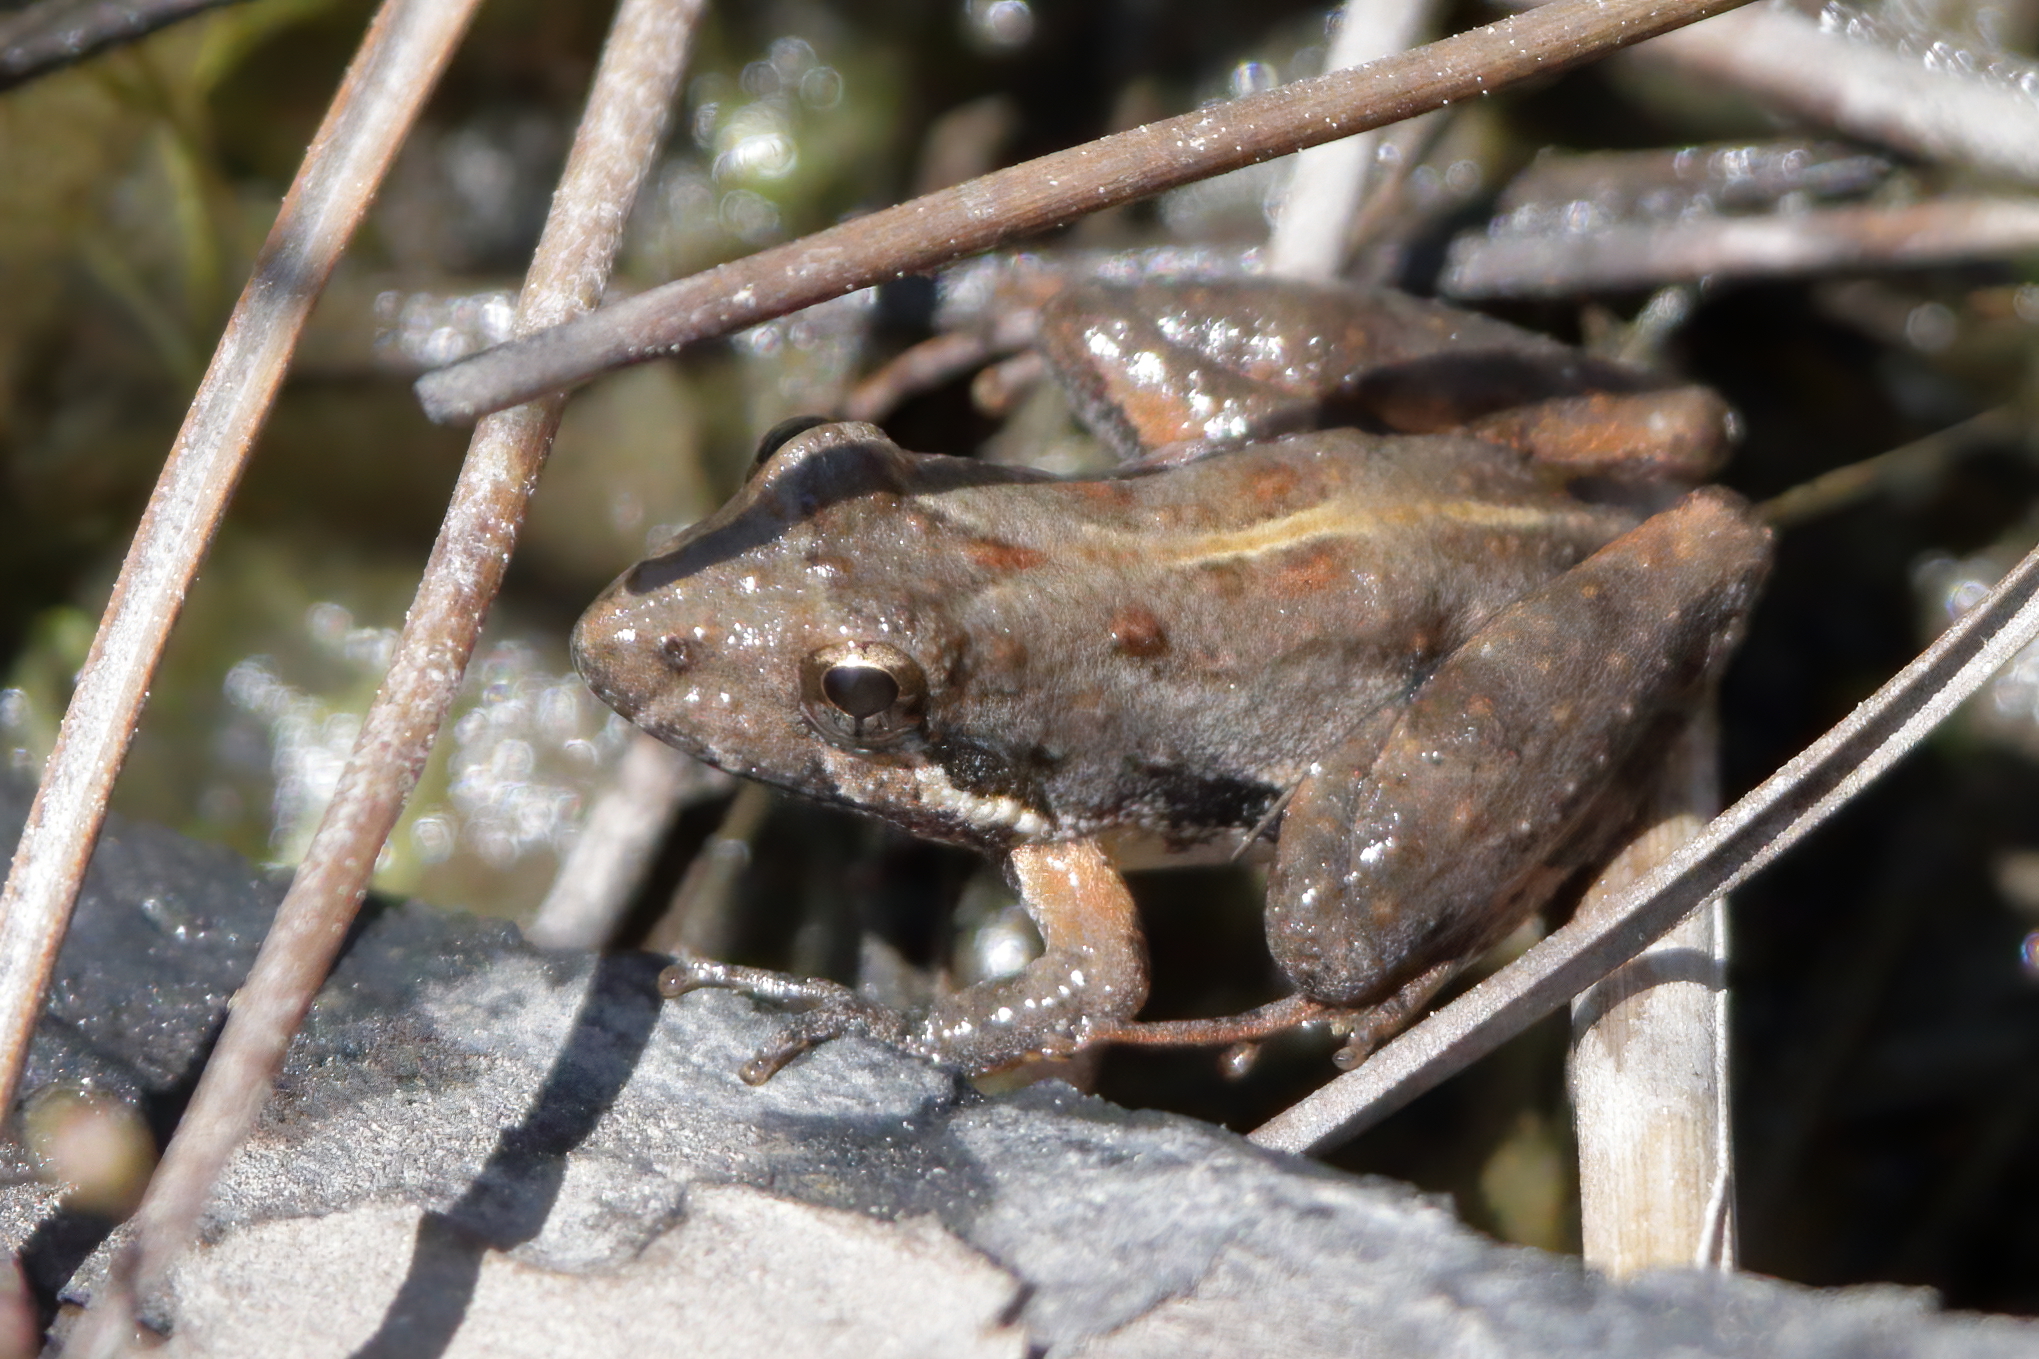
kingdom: Animalia
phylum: Chordata
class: Amphibia
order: Anura
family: Hylidae
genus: Acris
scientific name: Acris gryllus
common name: Southern cricket frog
